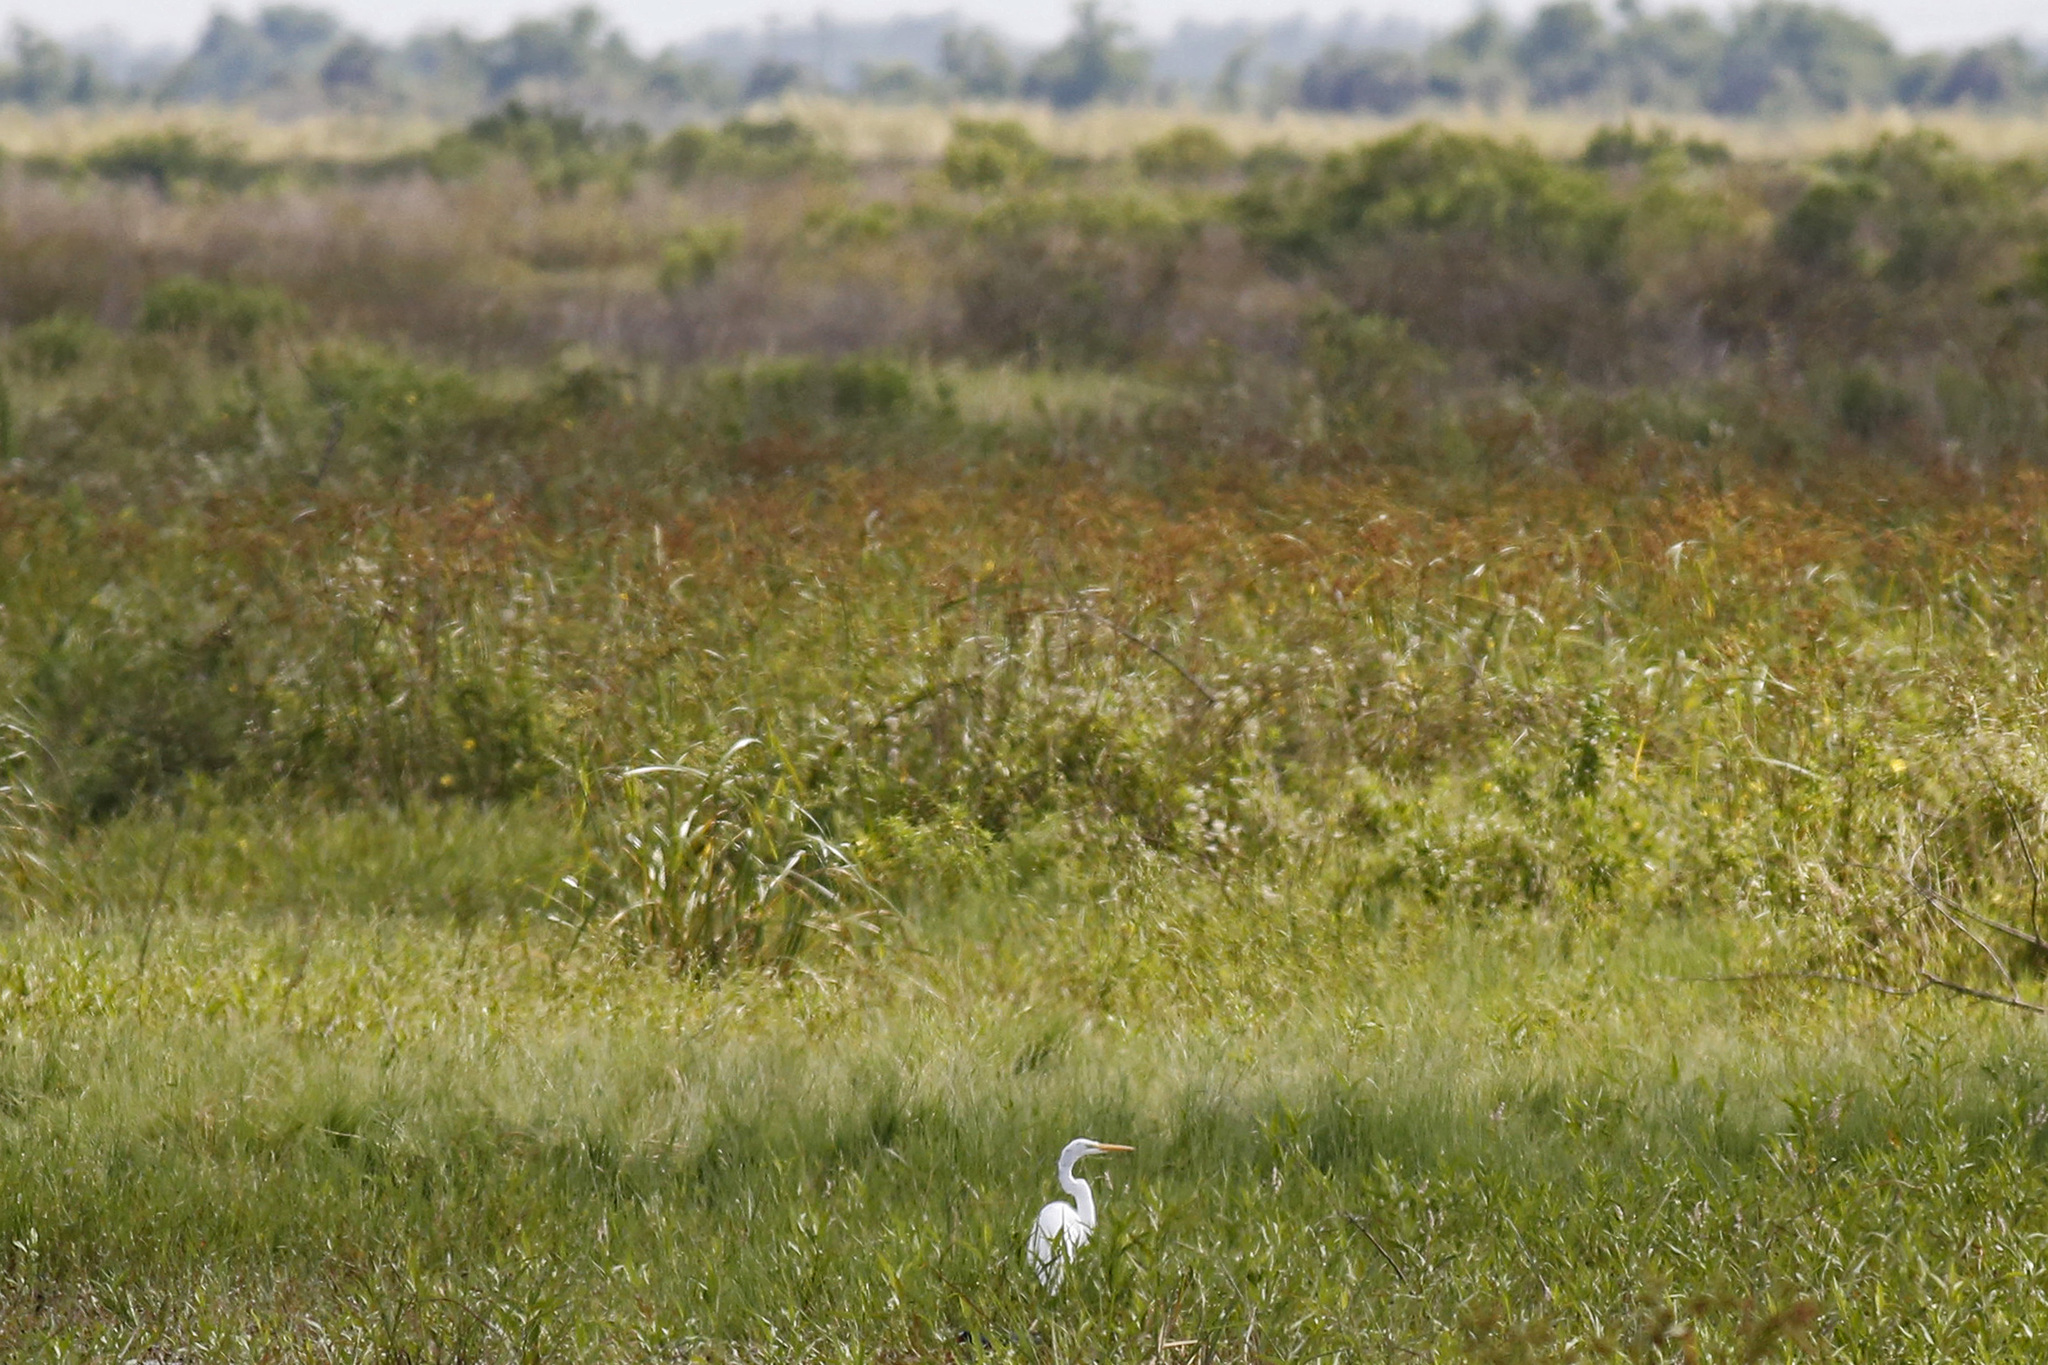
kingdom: Animalia
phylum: Chordata
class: Aves
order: Pelecaniformes
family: Ardeidae
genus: Ardea
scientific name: Ardea alba
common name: Great egret
